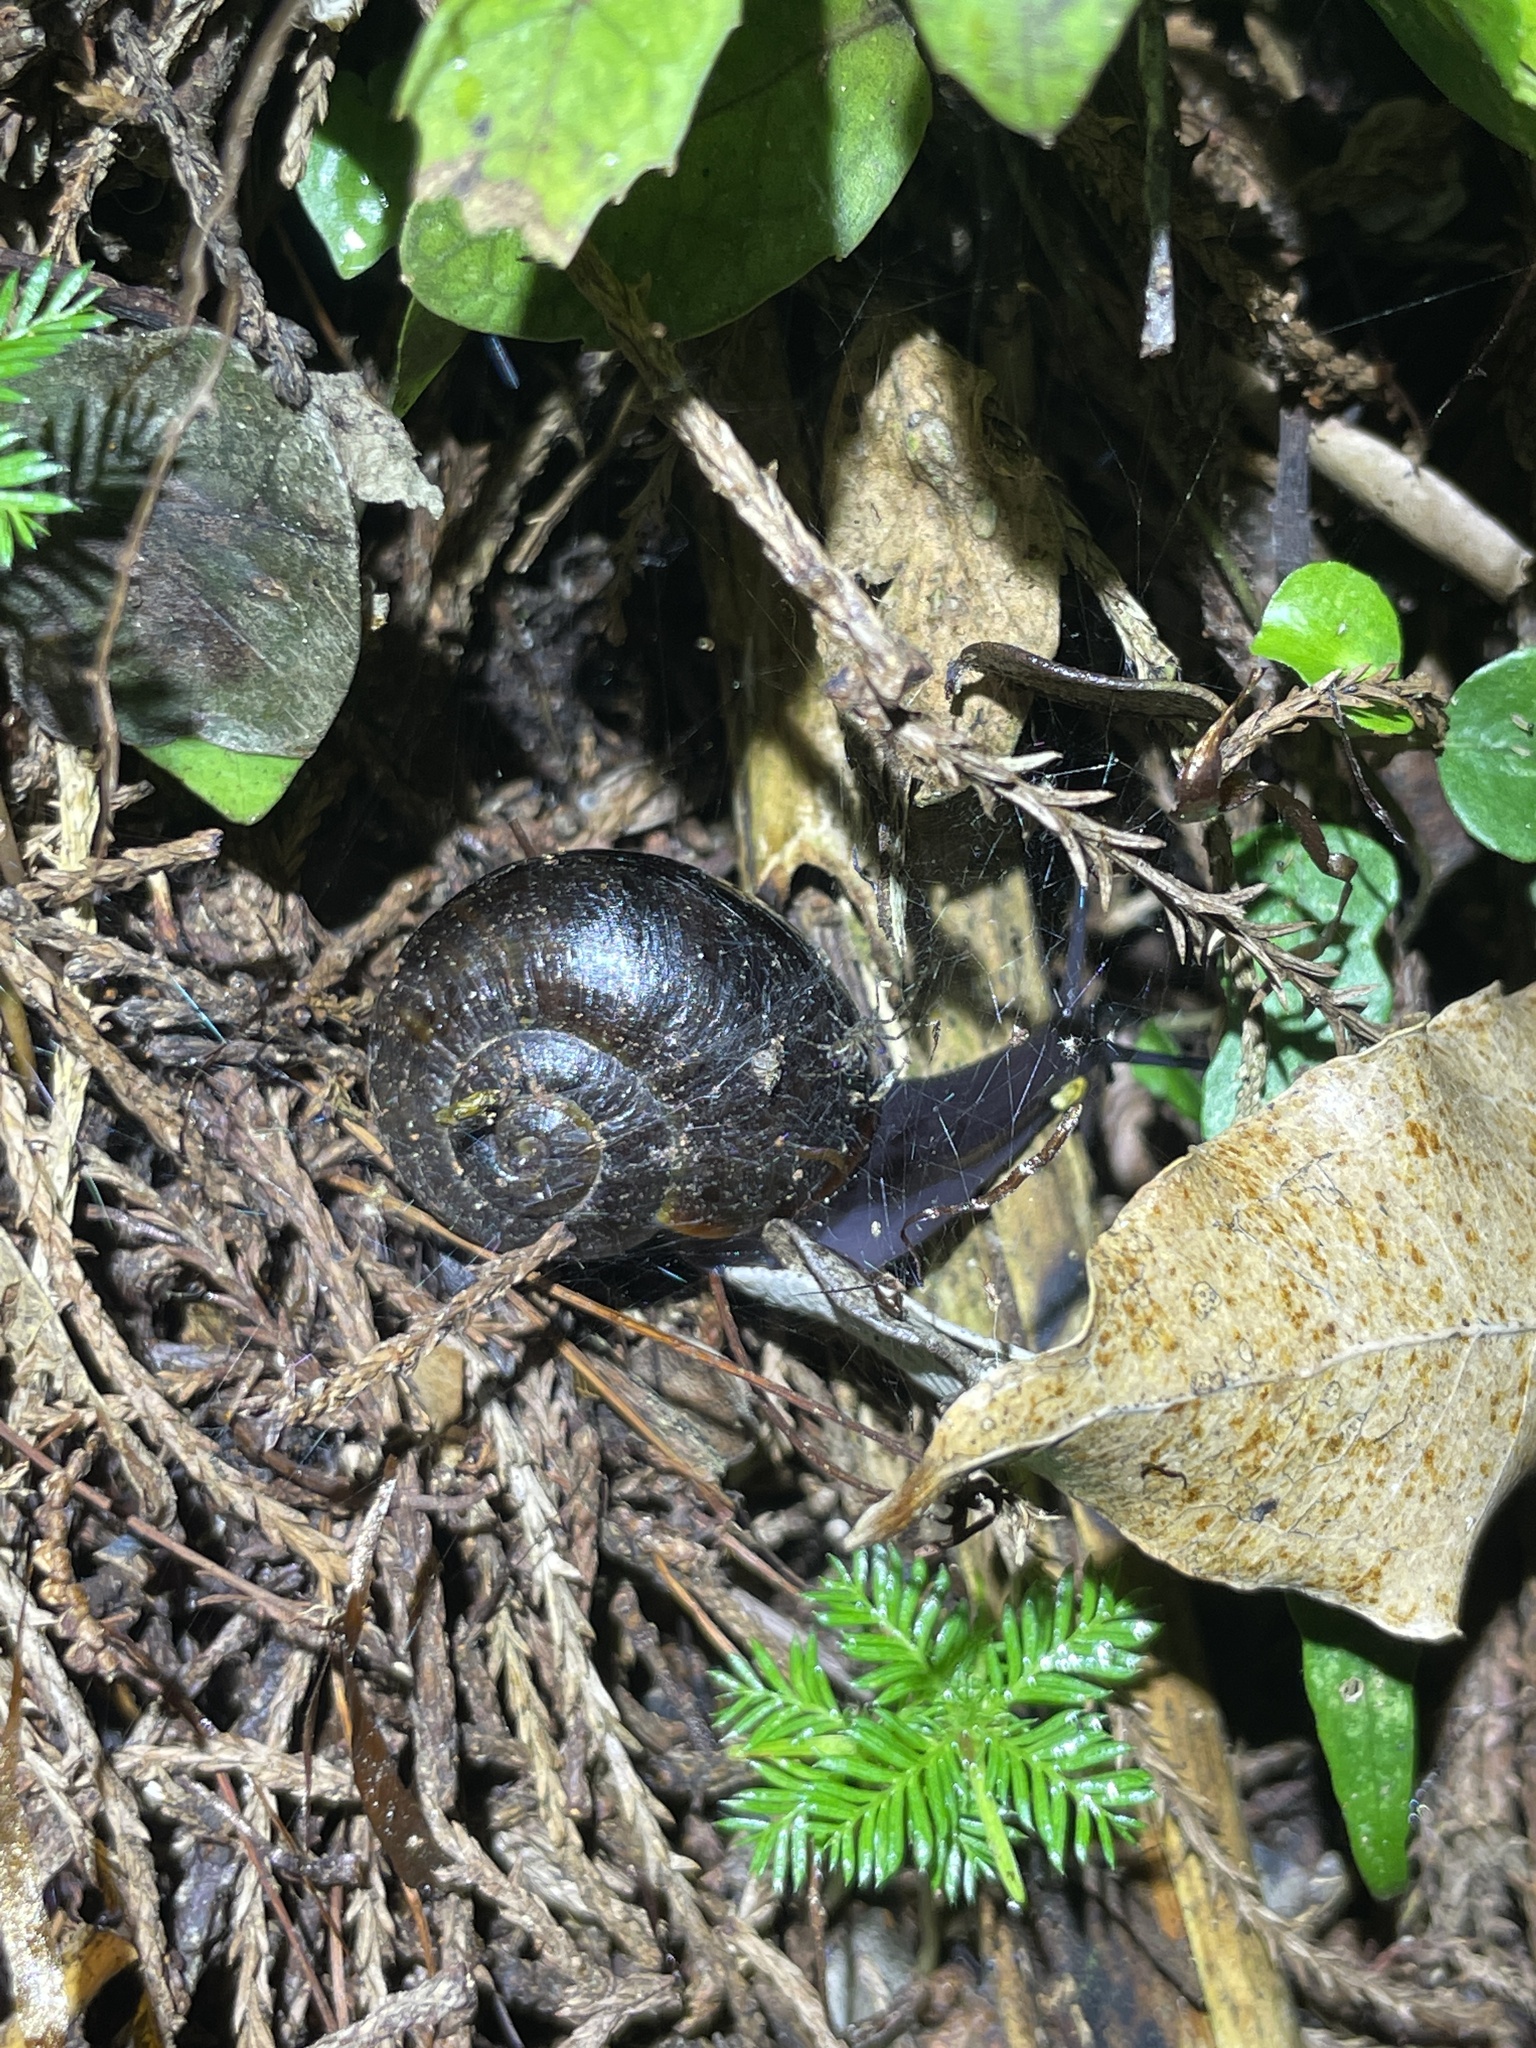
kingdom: Animalia
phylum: Mollusca
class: Gastropoda
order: Stylommatophora
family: Rhytididae
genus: Powelliphanta
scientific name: Powelliphanta traversi
